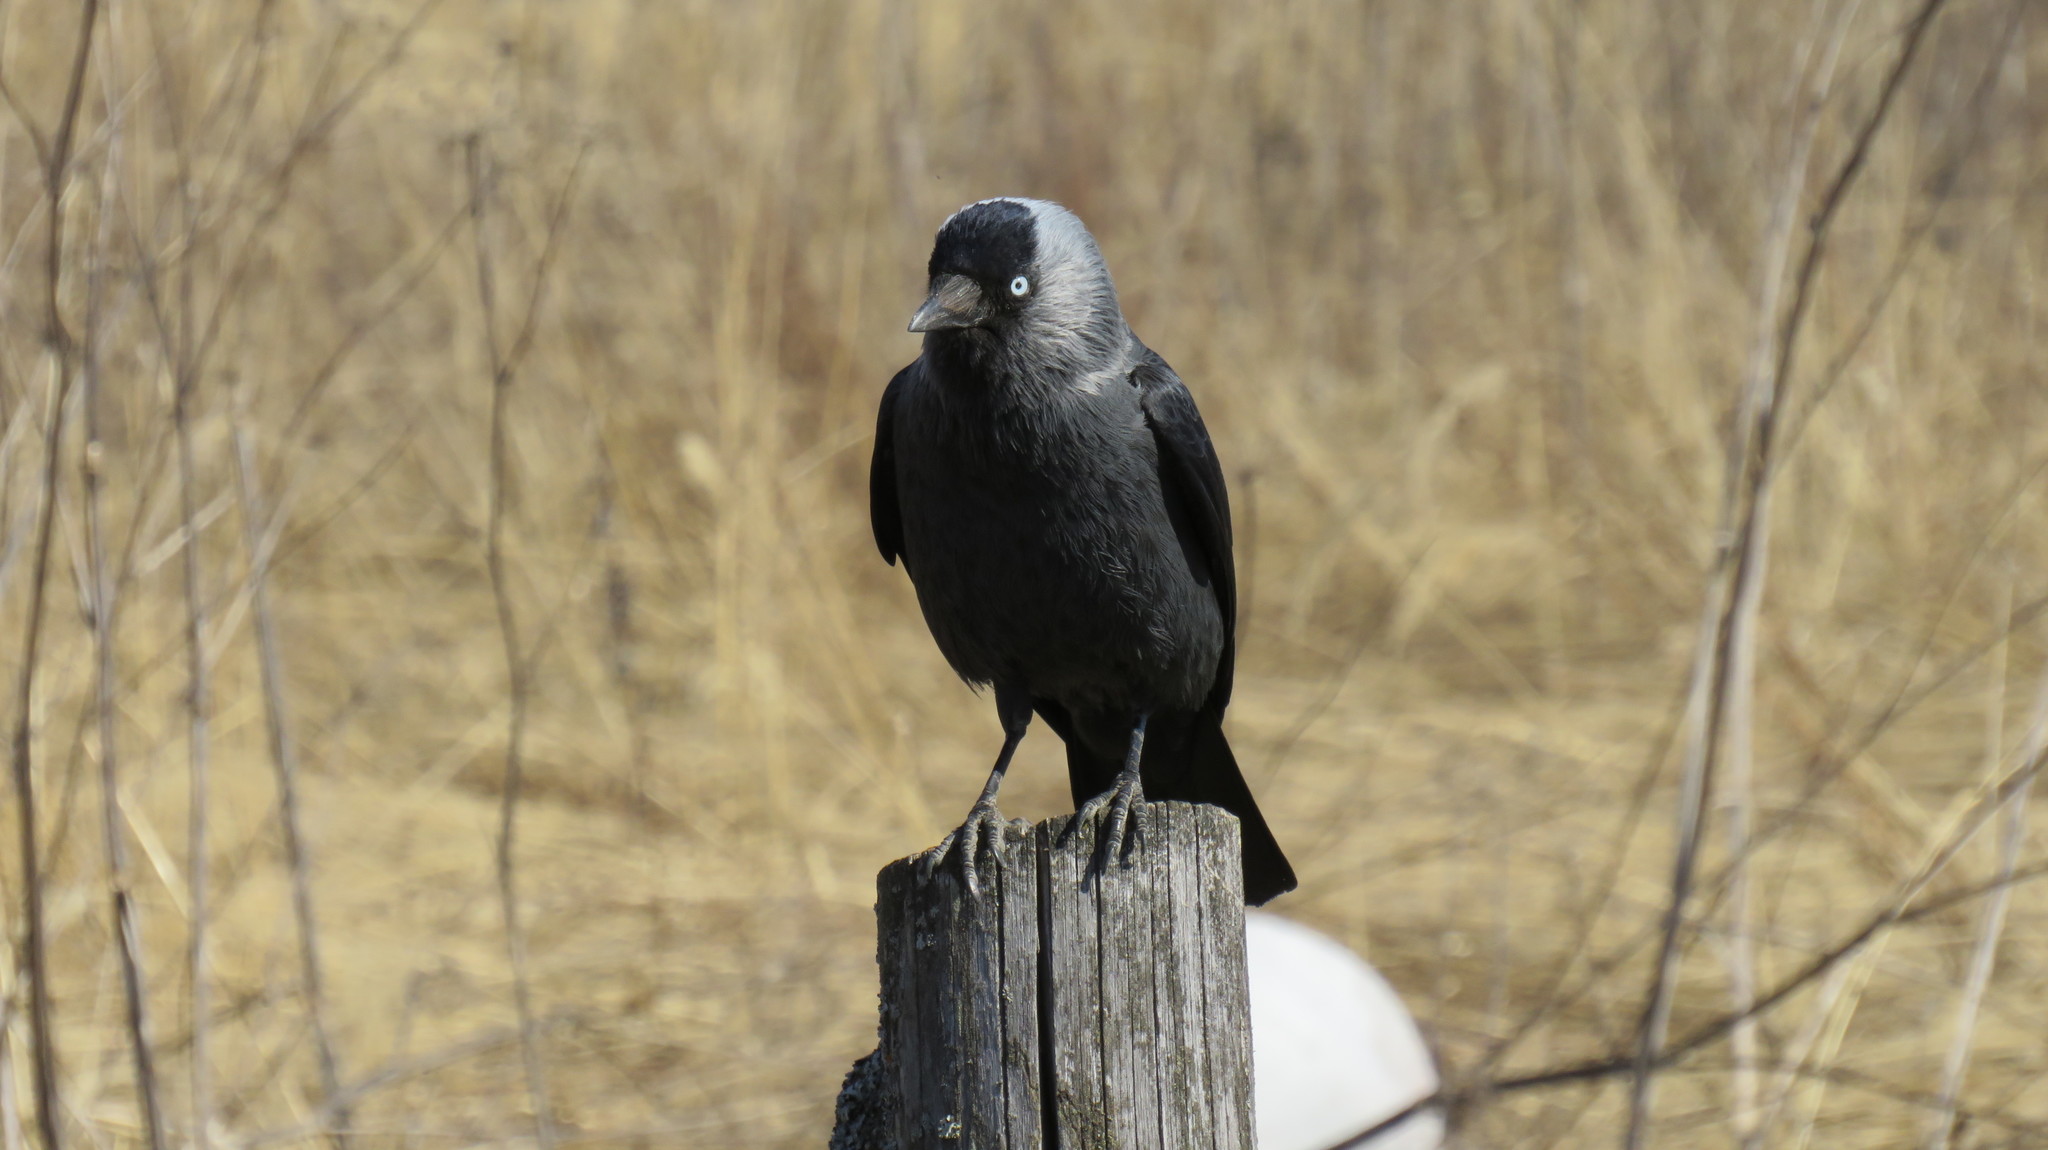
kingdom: Animalia
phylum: Chordata
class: Aves
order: Passeriformes
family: Corvidae
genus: Coloeus
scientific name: Coloeus monedula
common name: Western jackdaw
